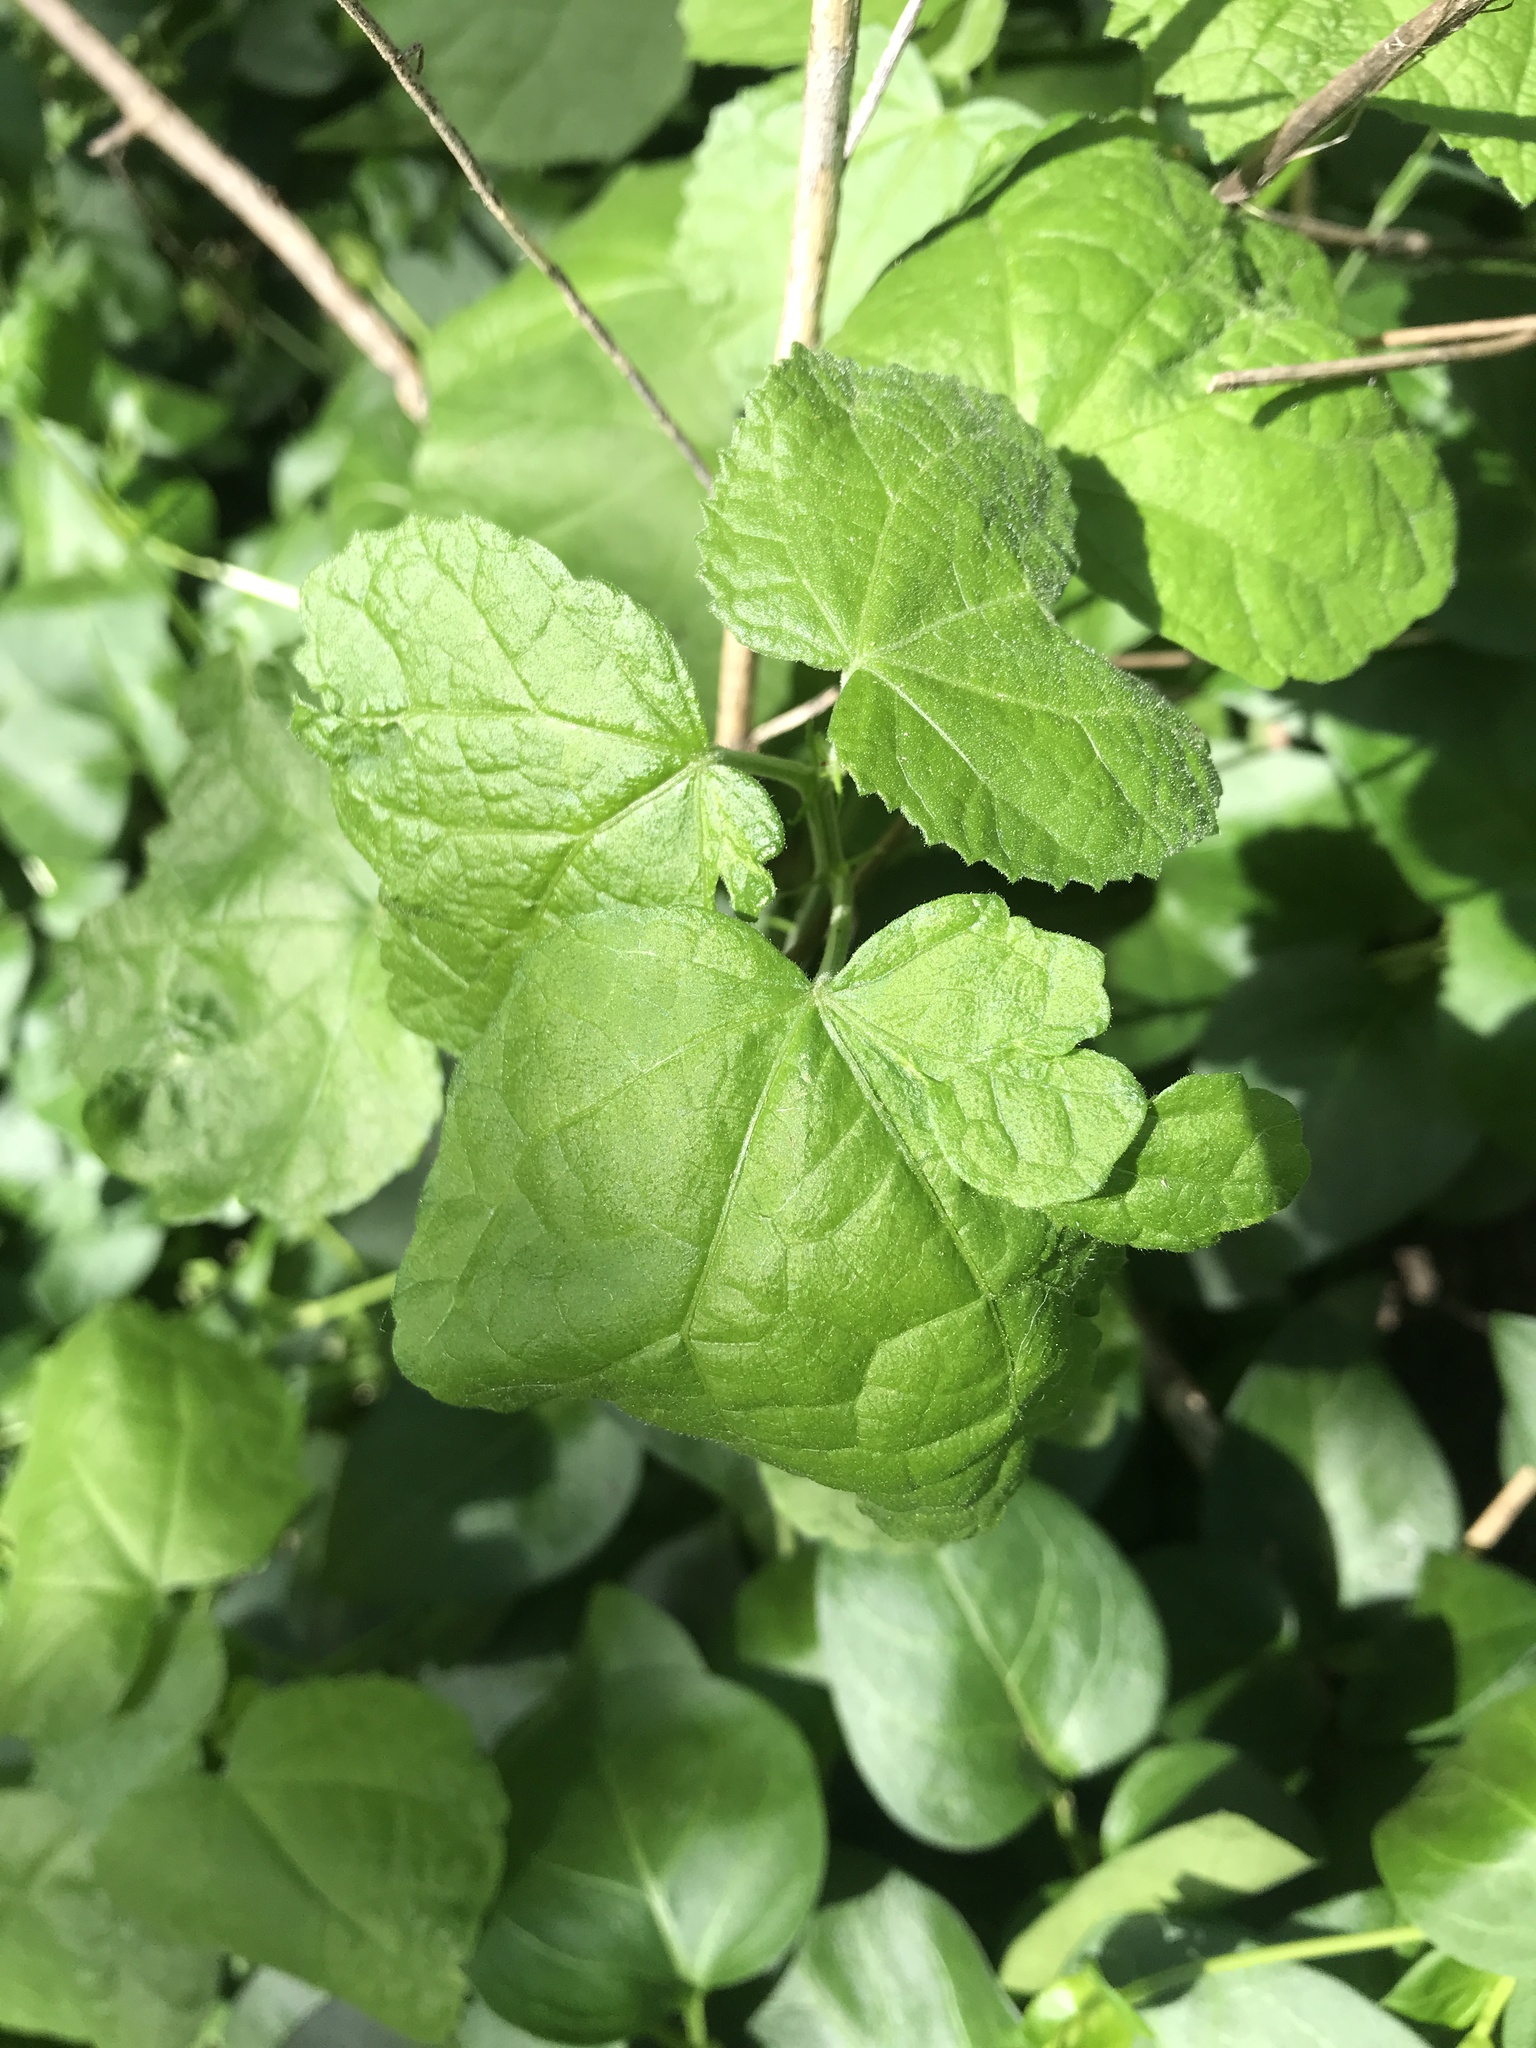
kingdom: Plantae
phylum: Tracheophyta
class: Magnoliopsida
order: Malvales
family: Malvaceae
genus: Malvaviscus
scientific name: Malvaviscus arboreus
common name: Wax mallow
